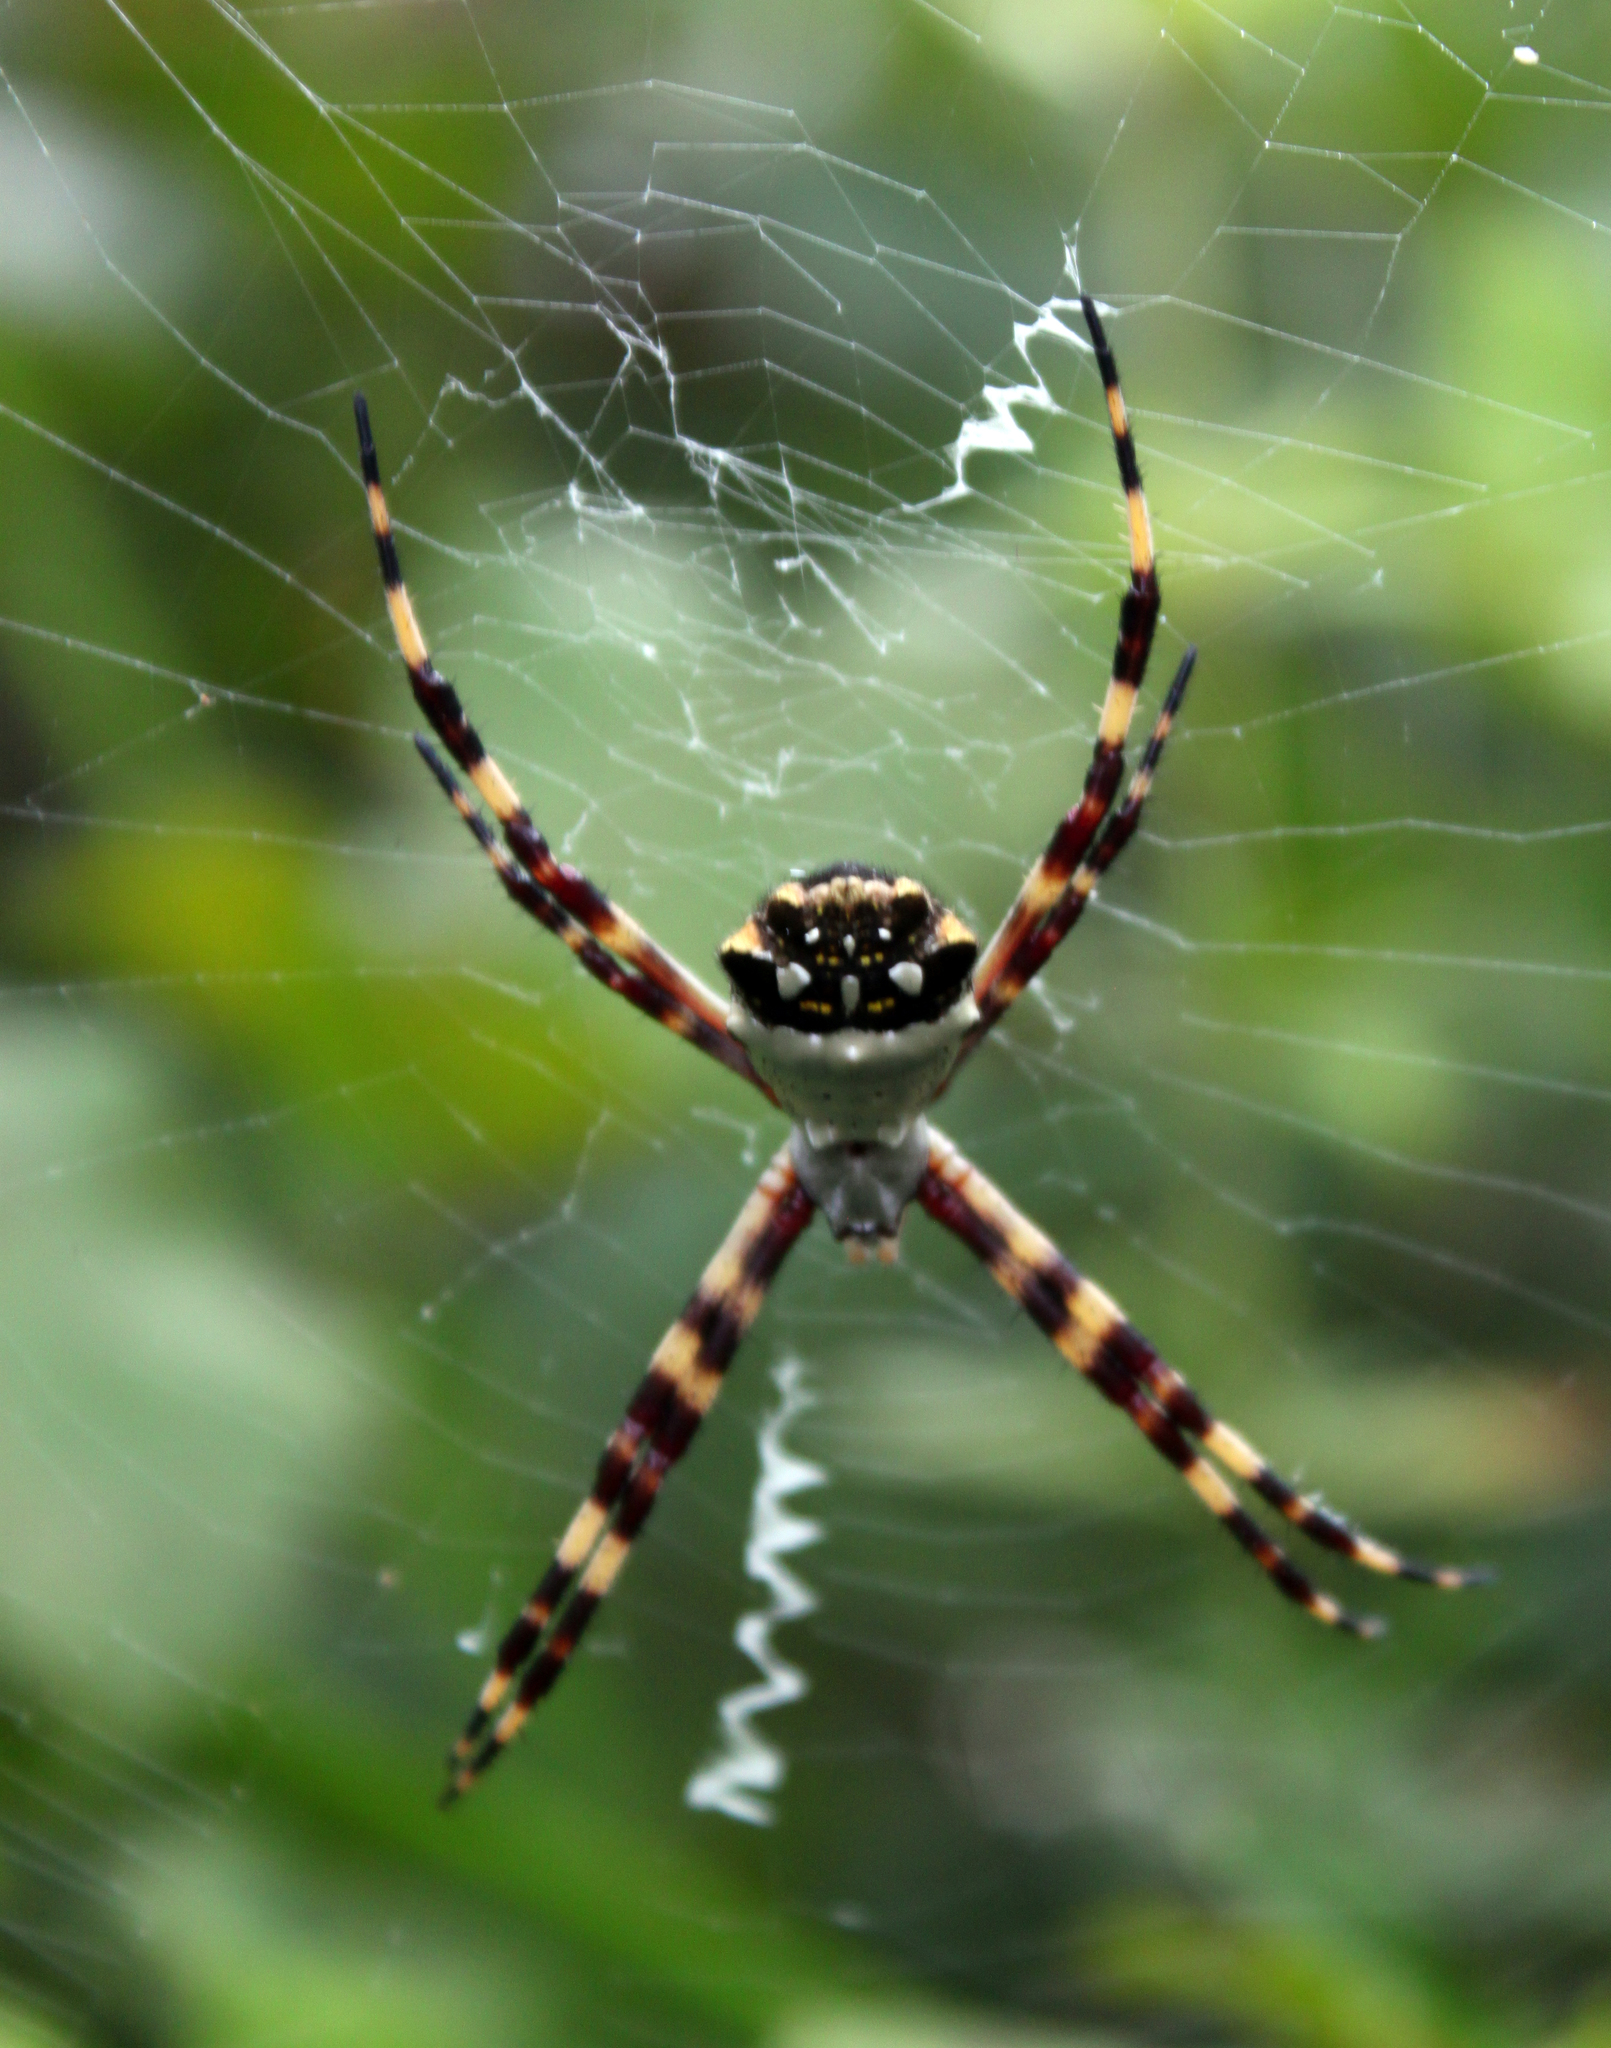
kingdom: Animalia
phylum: Arthropoda
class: Arachnida
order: Araneae
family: Araneidae
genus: Argiope
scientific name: Argiope argentata
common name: Orb weavers
